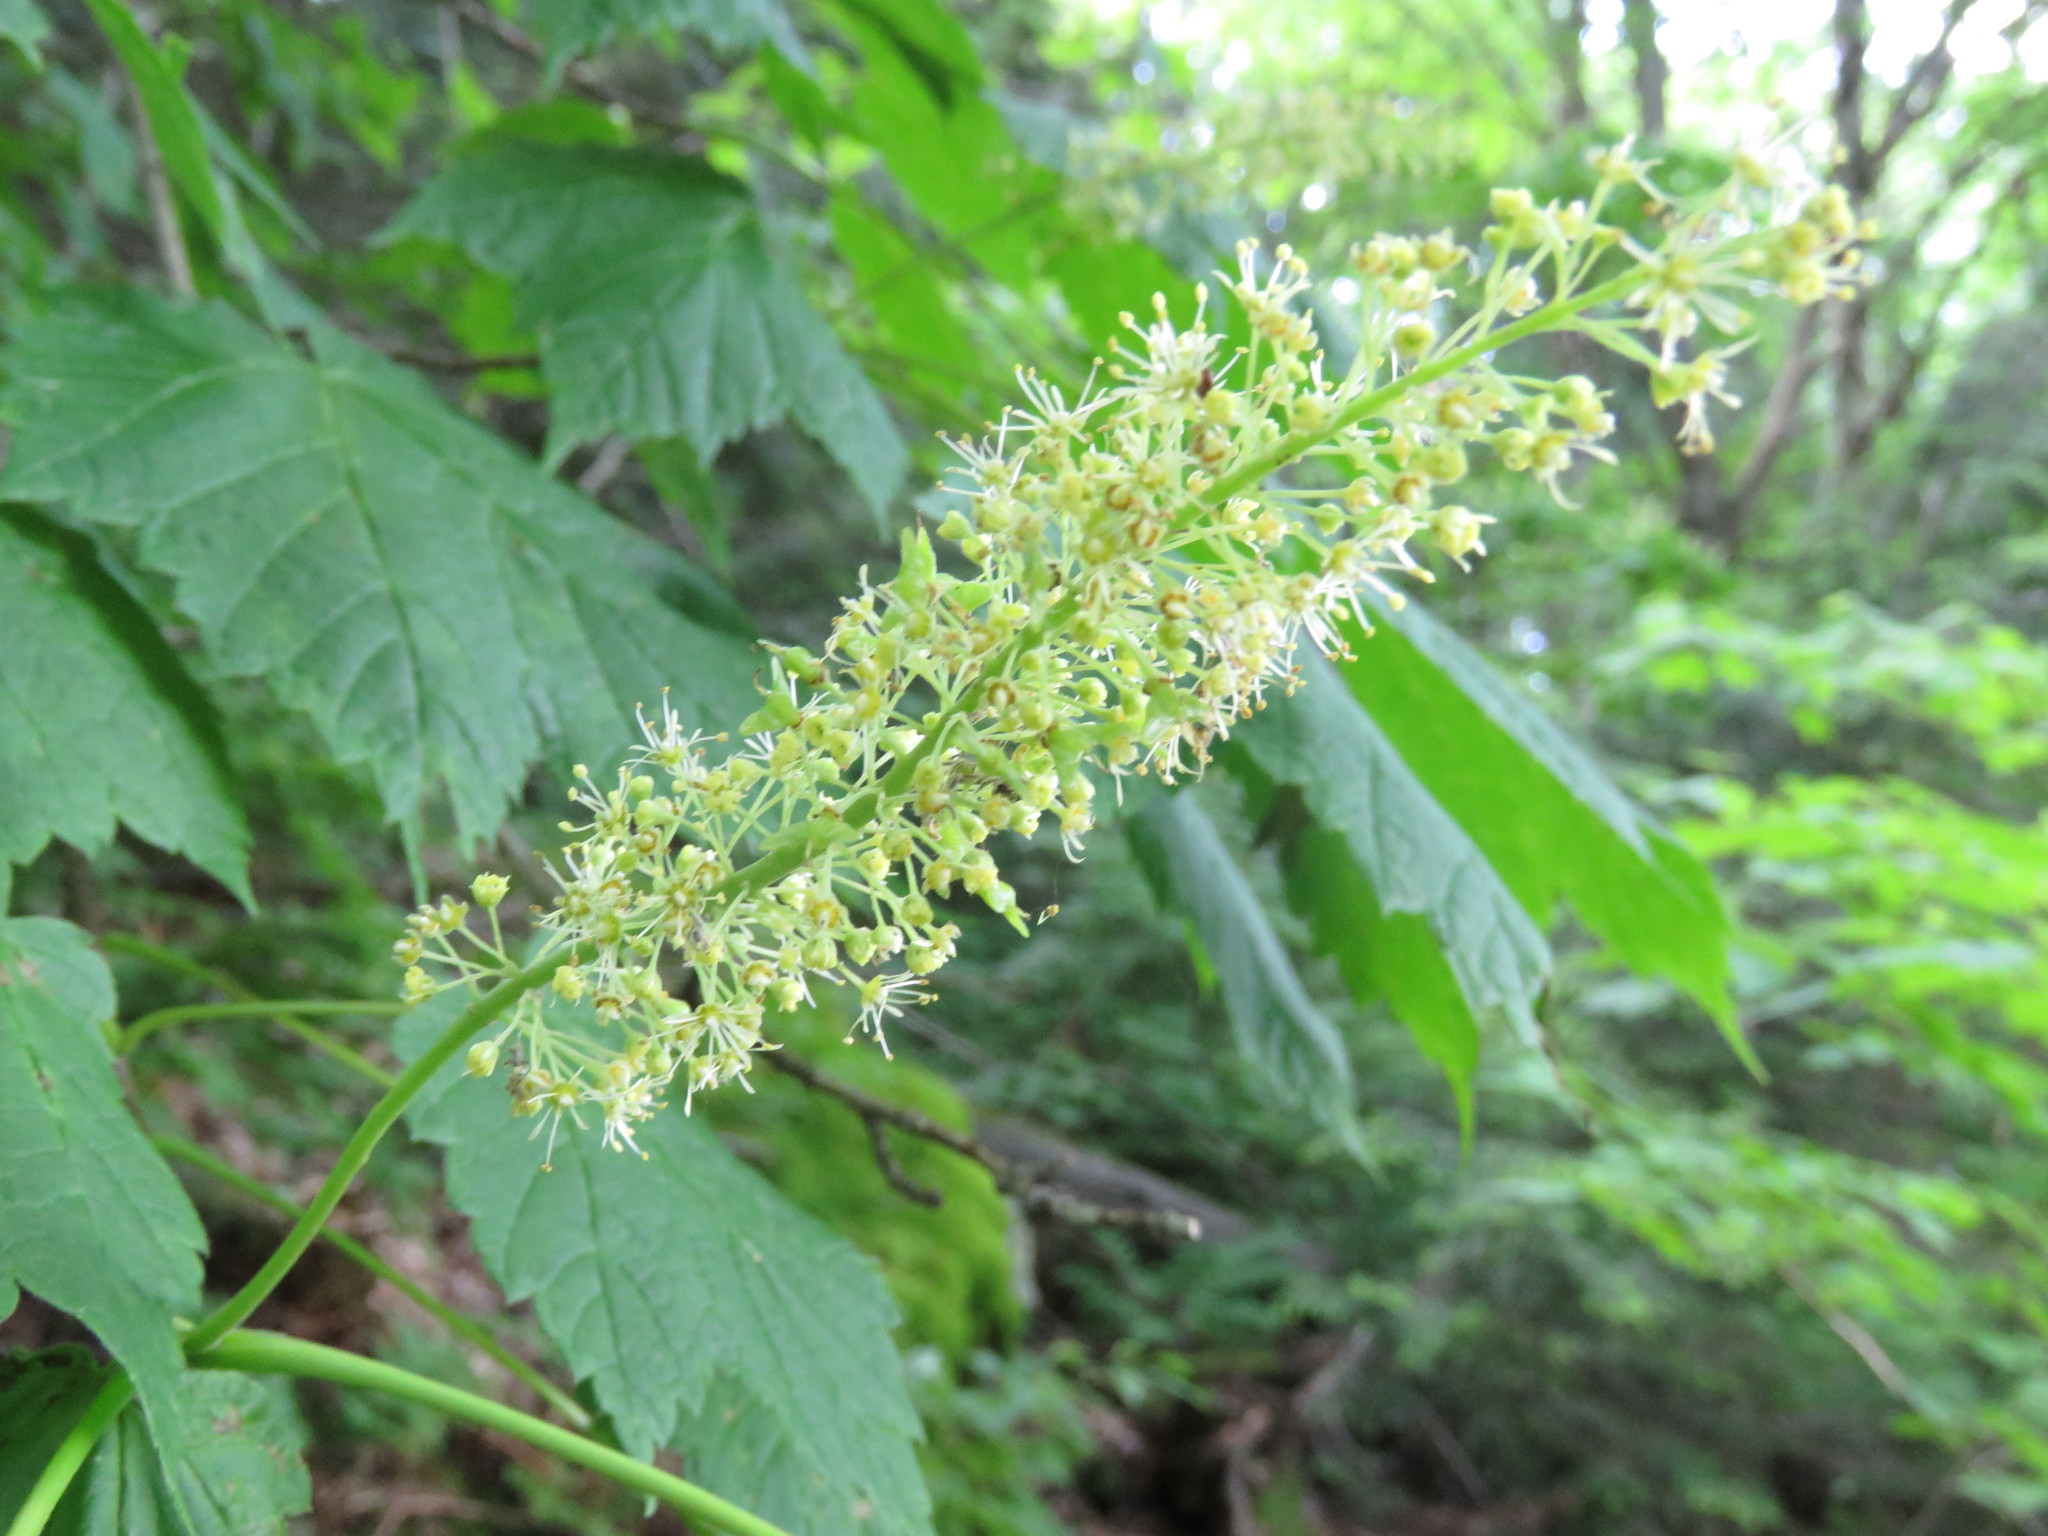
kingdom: Plantae
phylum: Tracheophyta
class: Magnoliopsida
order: Sapindales
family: Sapindaceae
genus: Acer
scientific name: Acer spicatum
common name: Mountain maple
